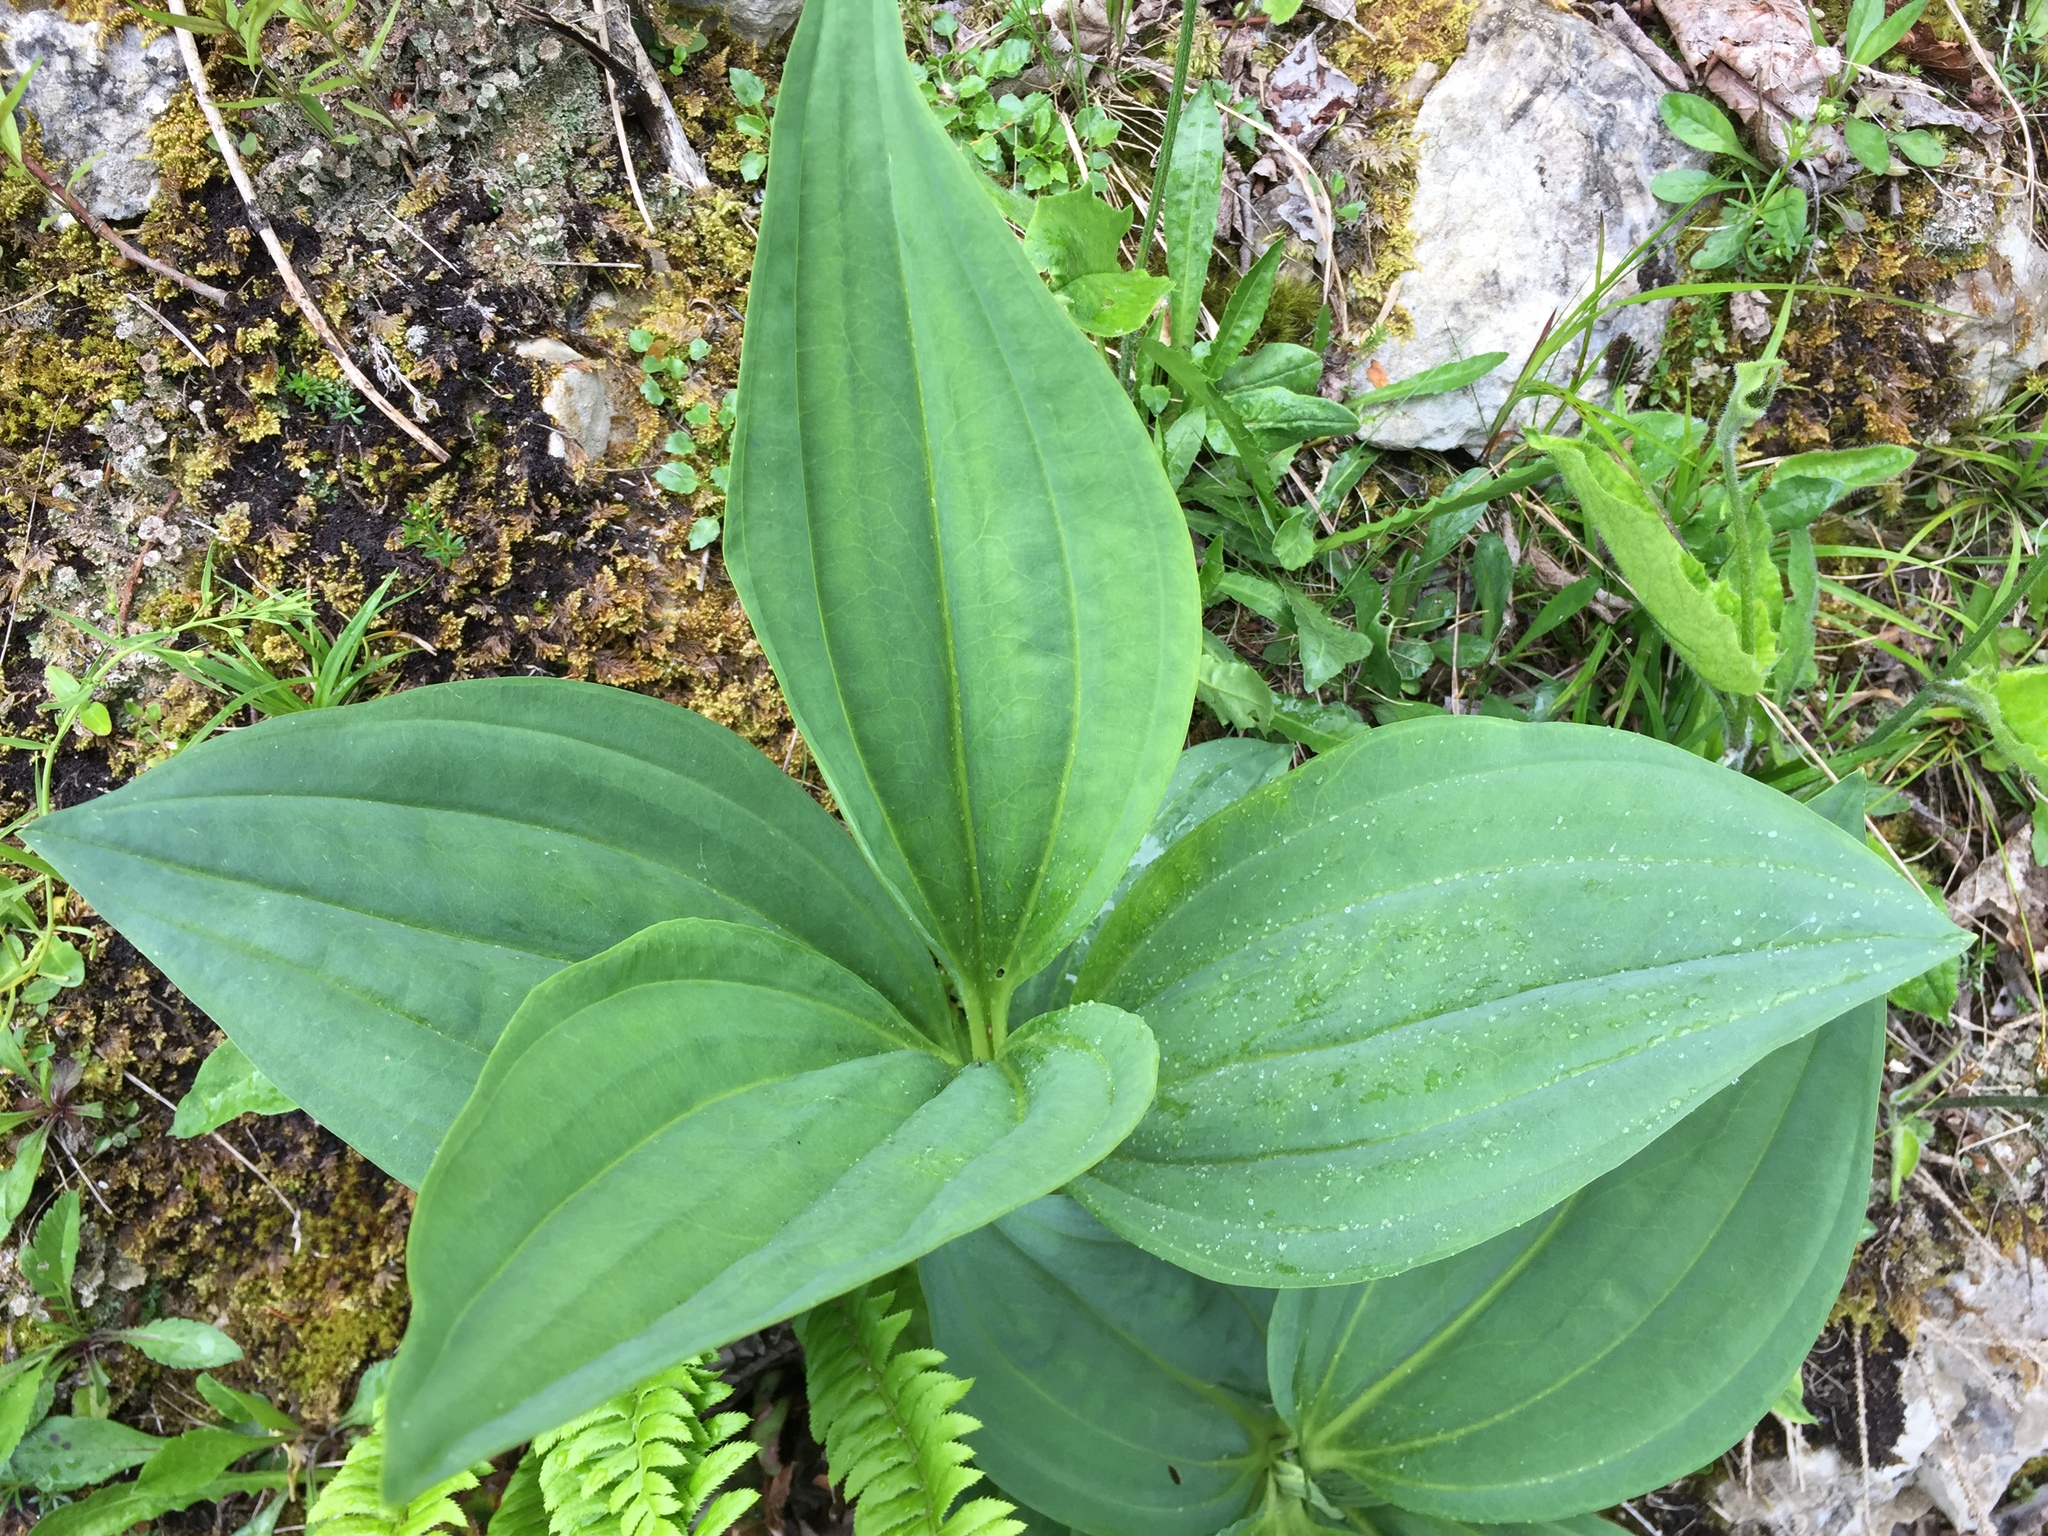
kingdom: Plantae
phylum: Tracheophyta
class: Magnoliopsida
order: Gentianales
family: Gentianaceae
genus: Gentiana
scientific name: Gentiana lutea
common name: Great yellow gentian
